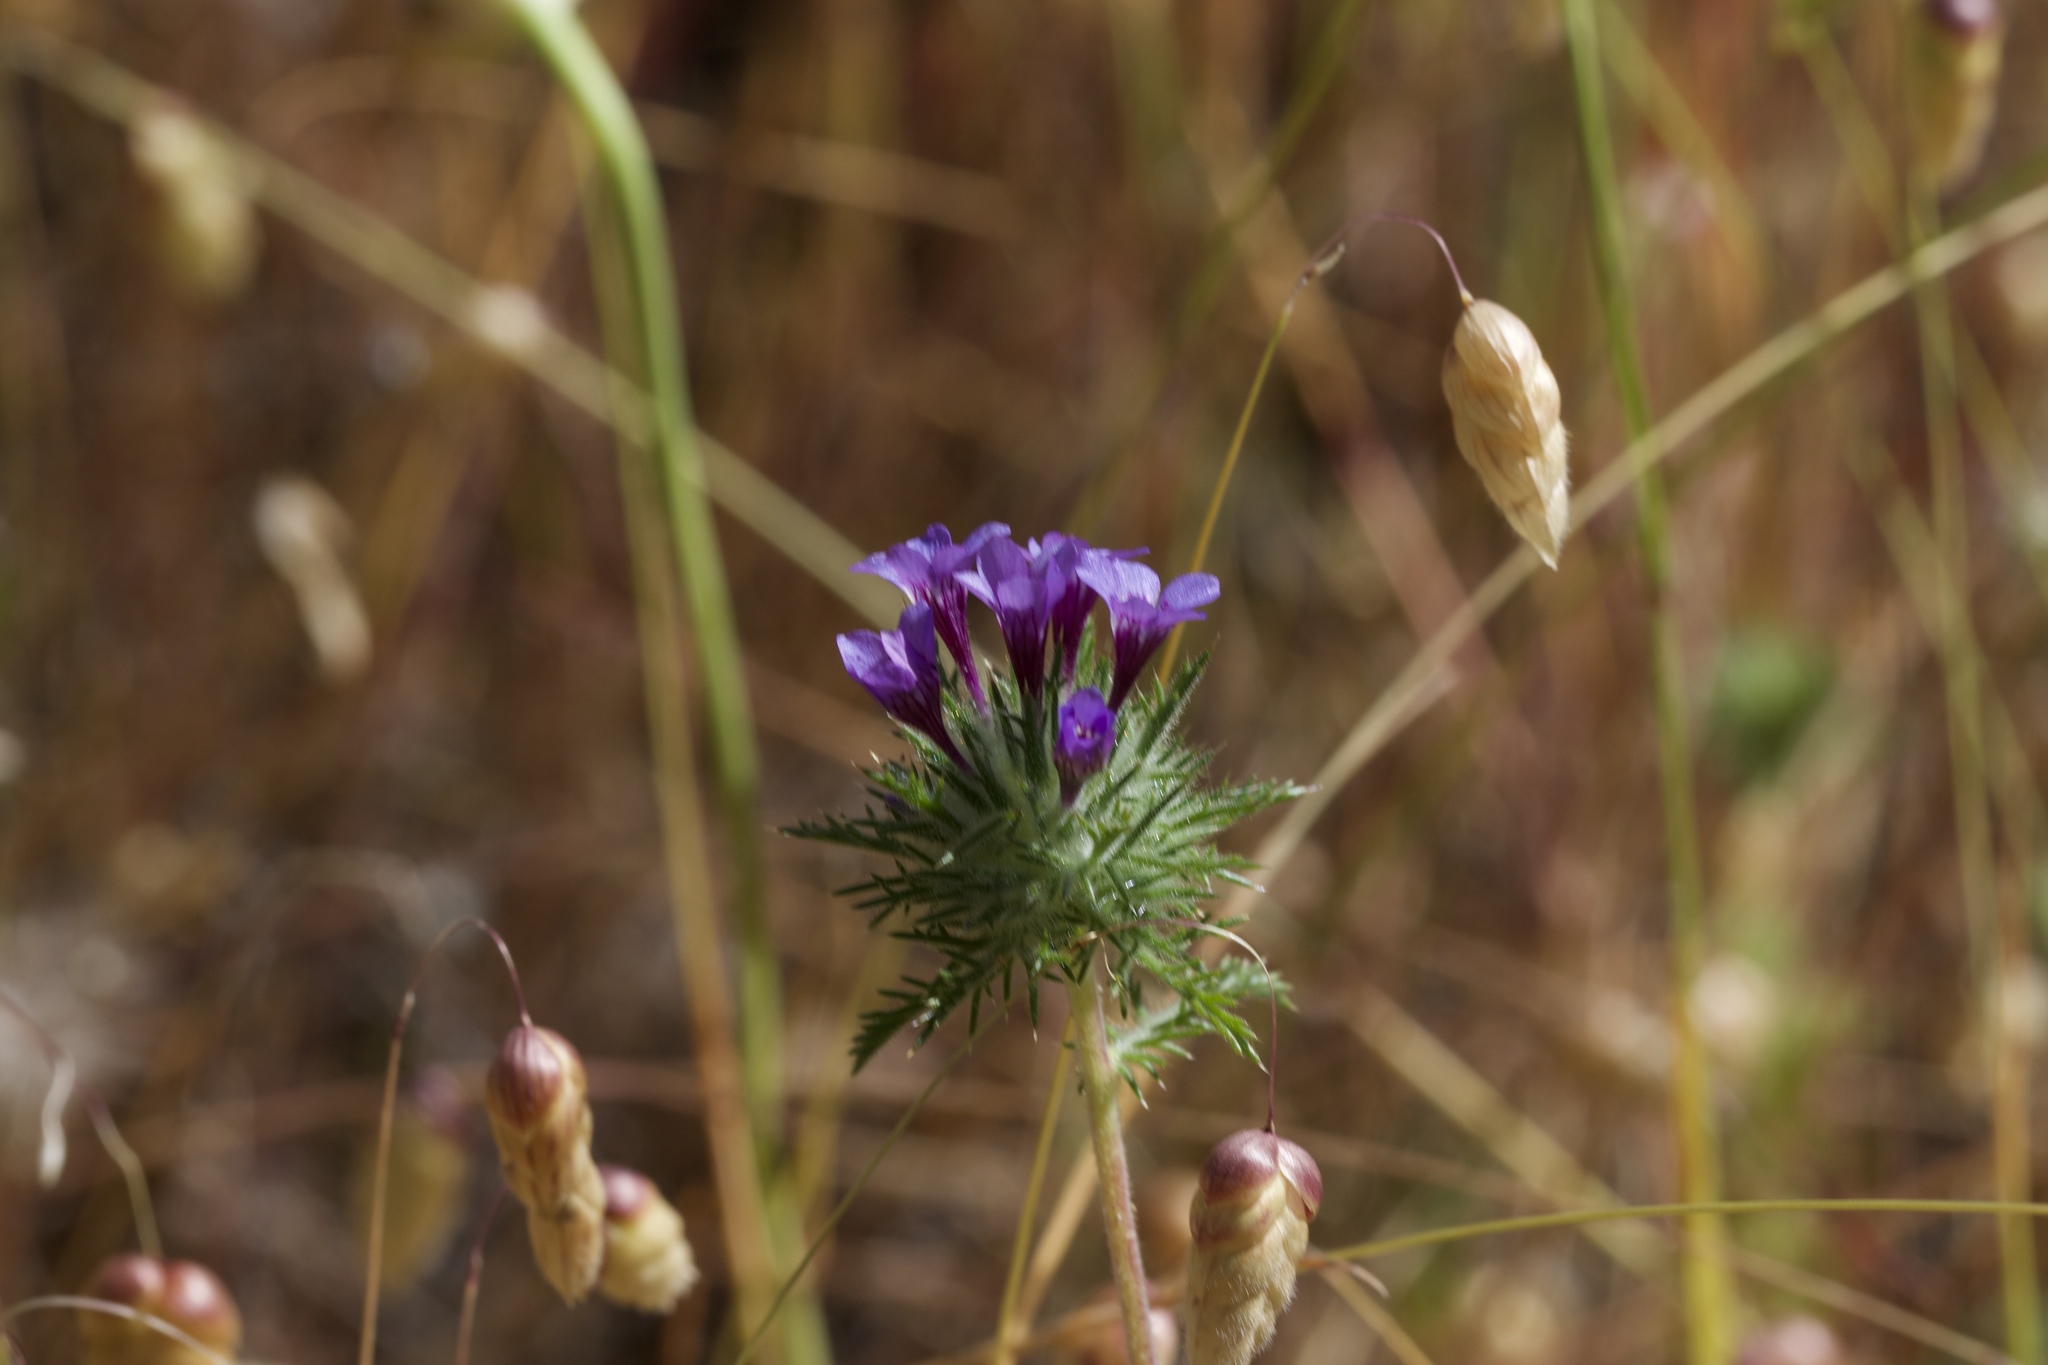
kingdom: Plantae
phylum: Tracheophyta
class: Magnoliopsida
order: Ericales
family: Polemoniaceae
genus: Navarretia
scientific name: Navarretia pubescens
